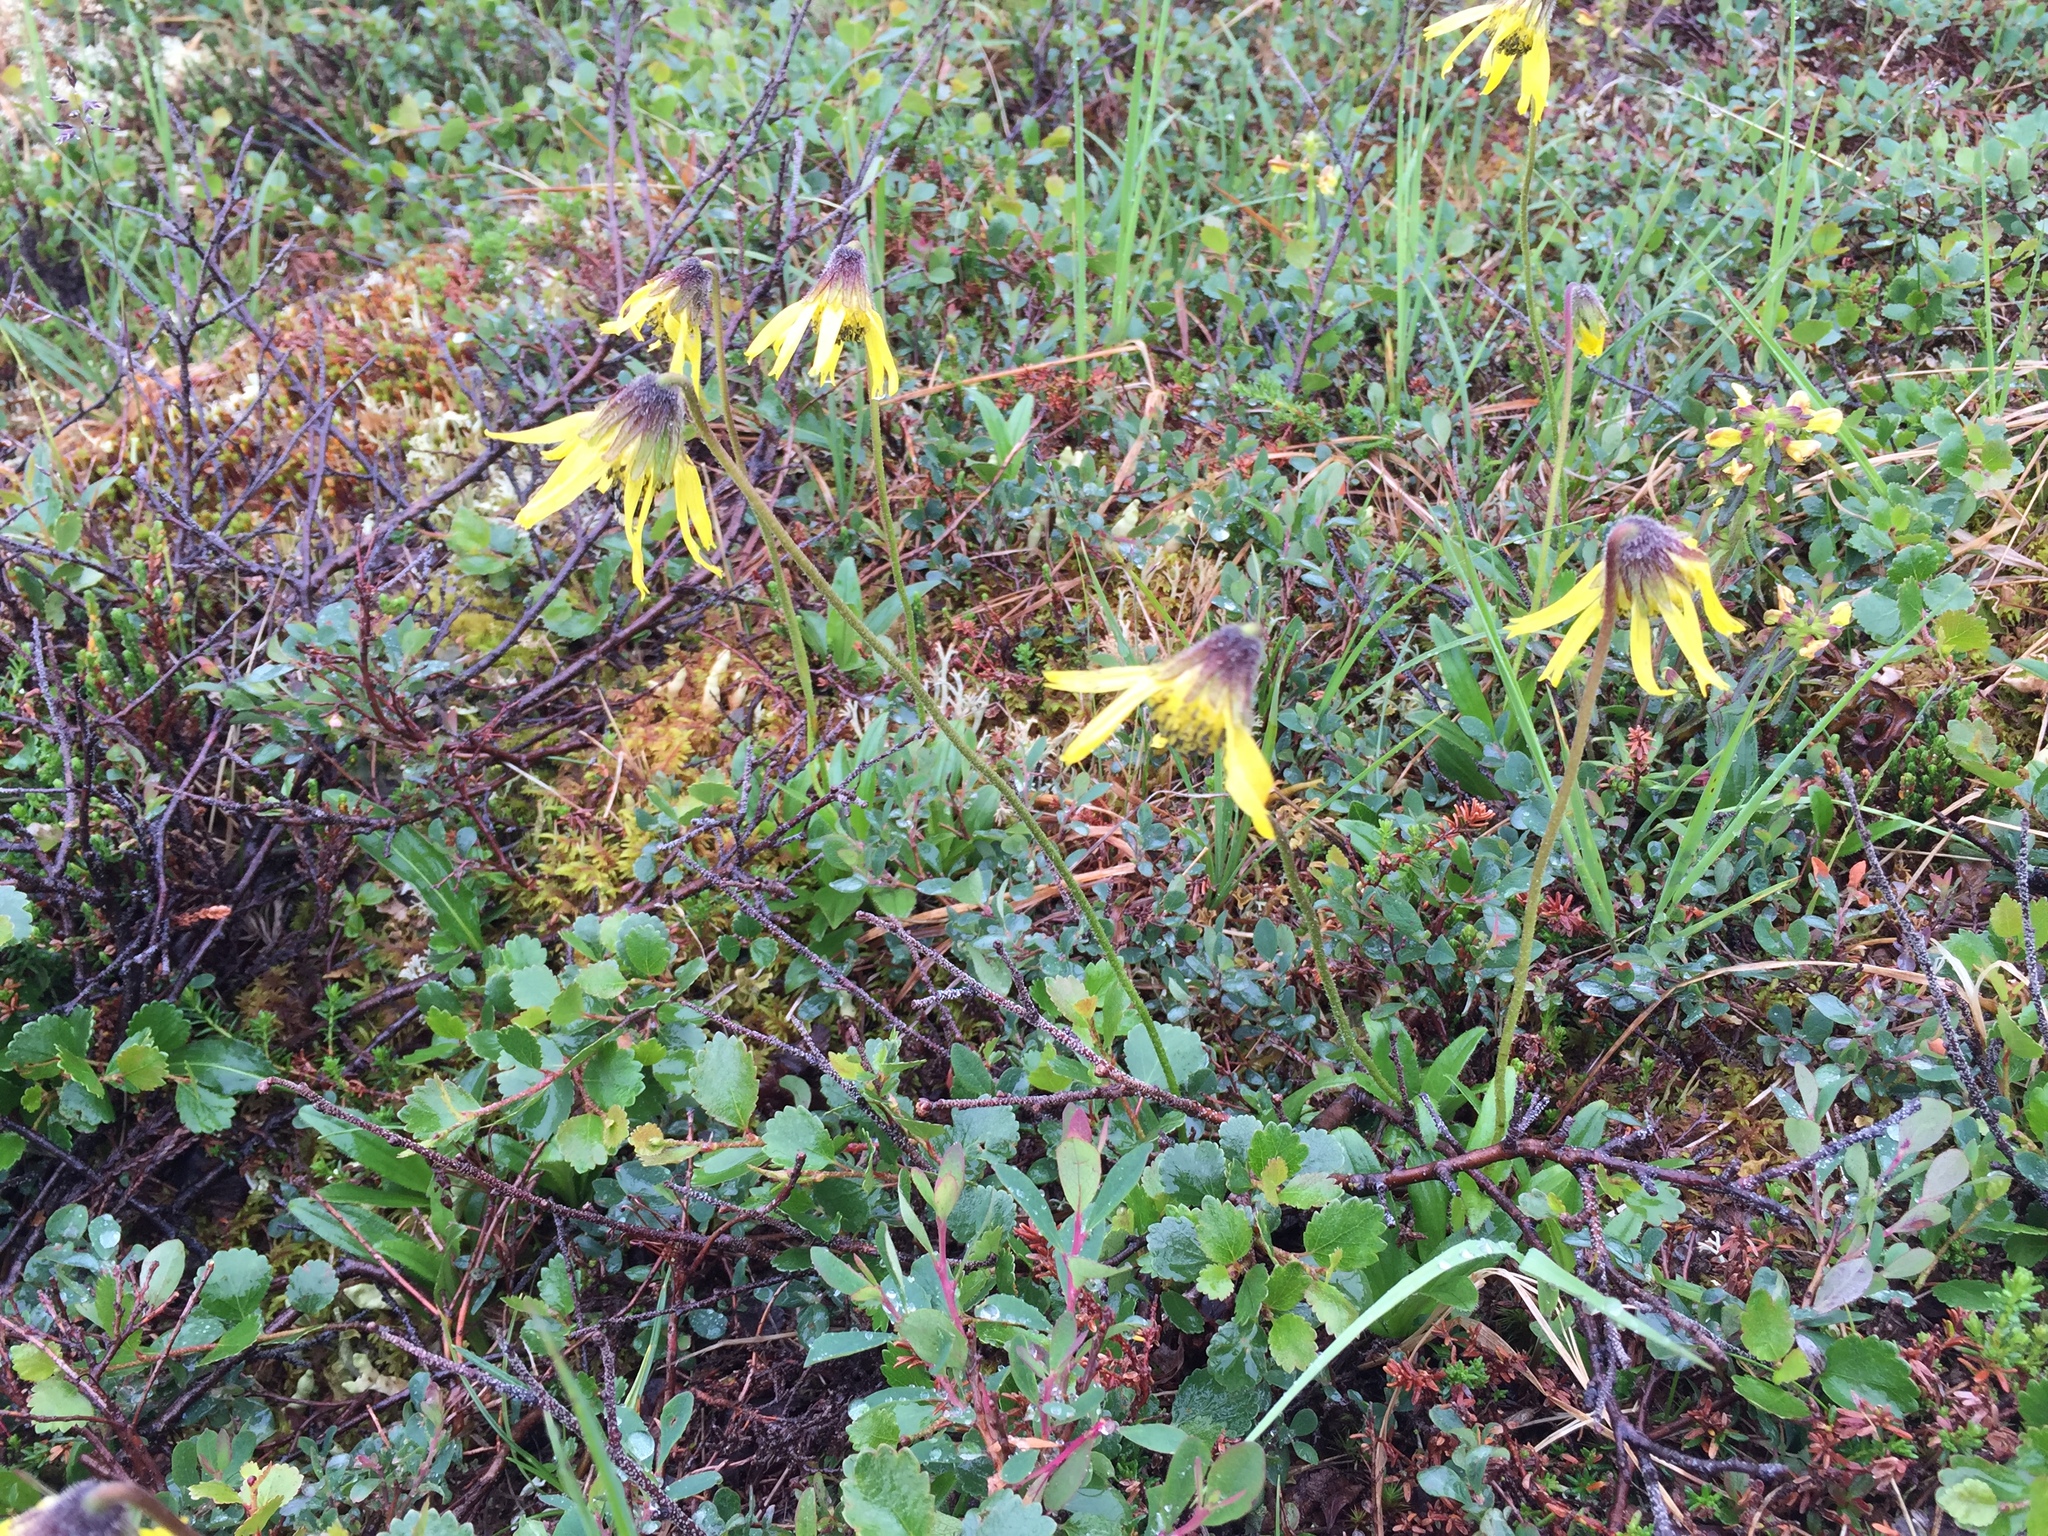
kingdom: Plantae
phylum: Tracheophyta
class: Magnoliopsida
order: Asterales
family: Asteraceae
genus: Arnica
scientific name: Arnica lessingii
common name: Nodding arnica
